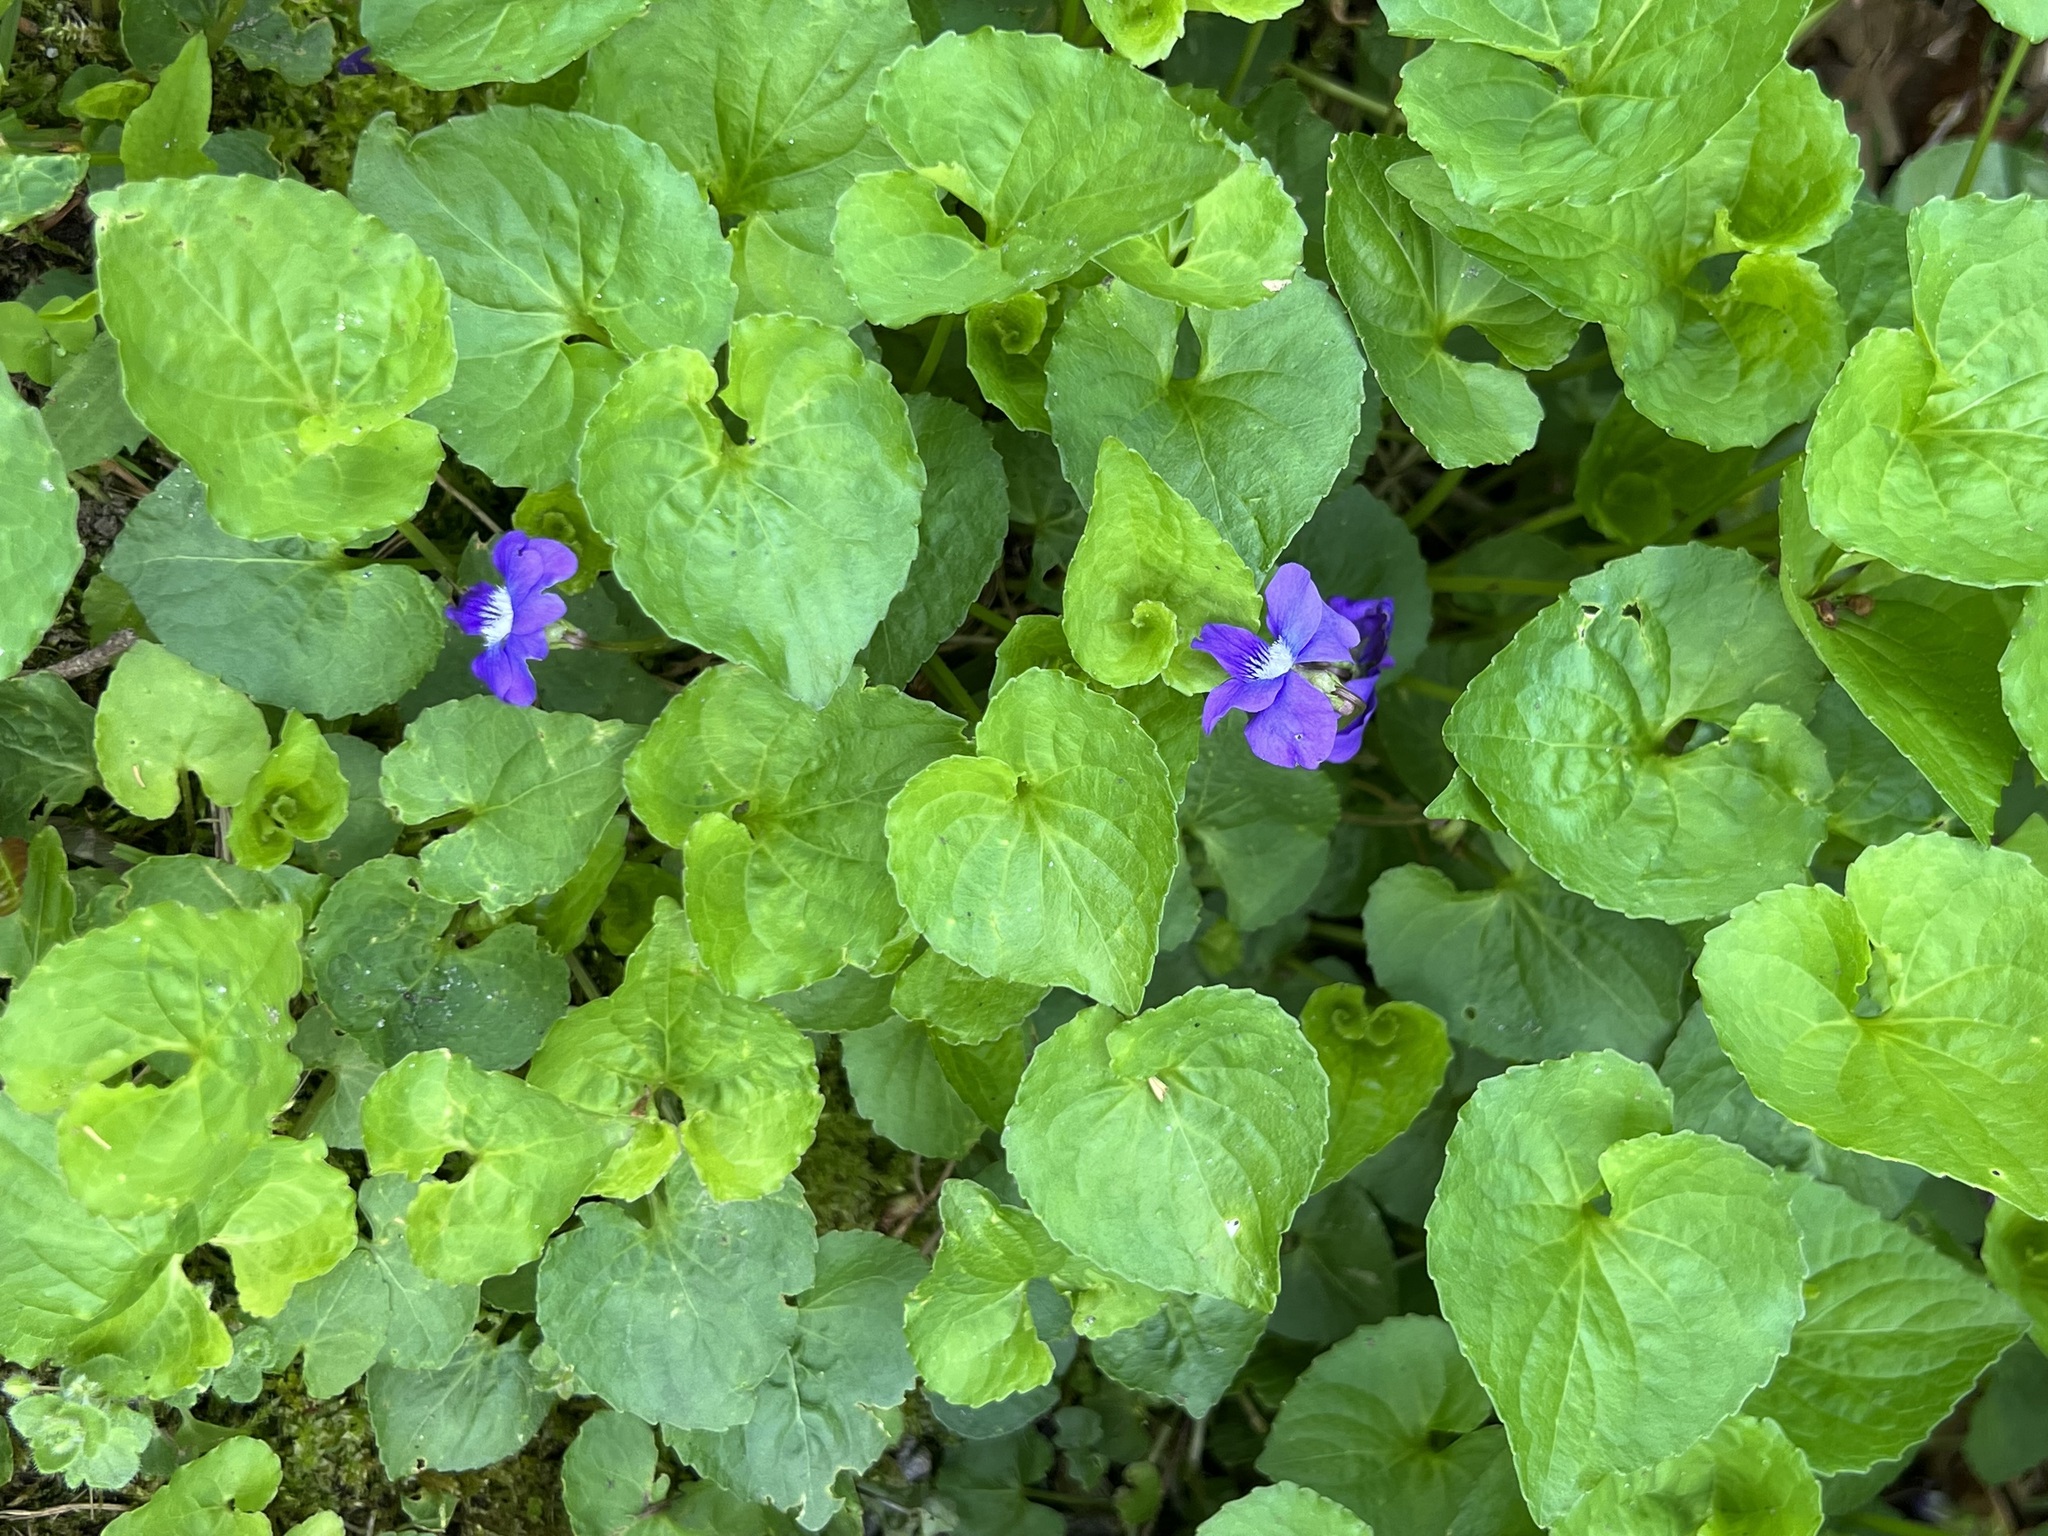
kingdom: Plantae
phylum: Tracheophyta
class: Magnoliopsida
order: Malpighiales
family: Violaceae
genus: Viola
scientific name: Viola sororia
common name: Dooryard violet
